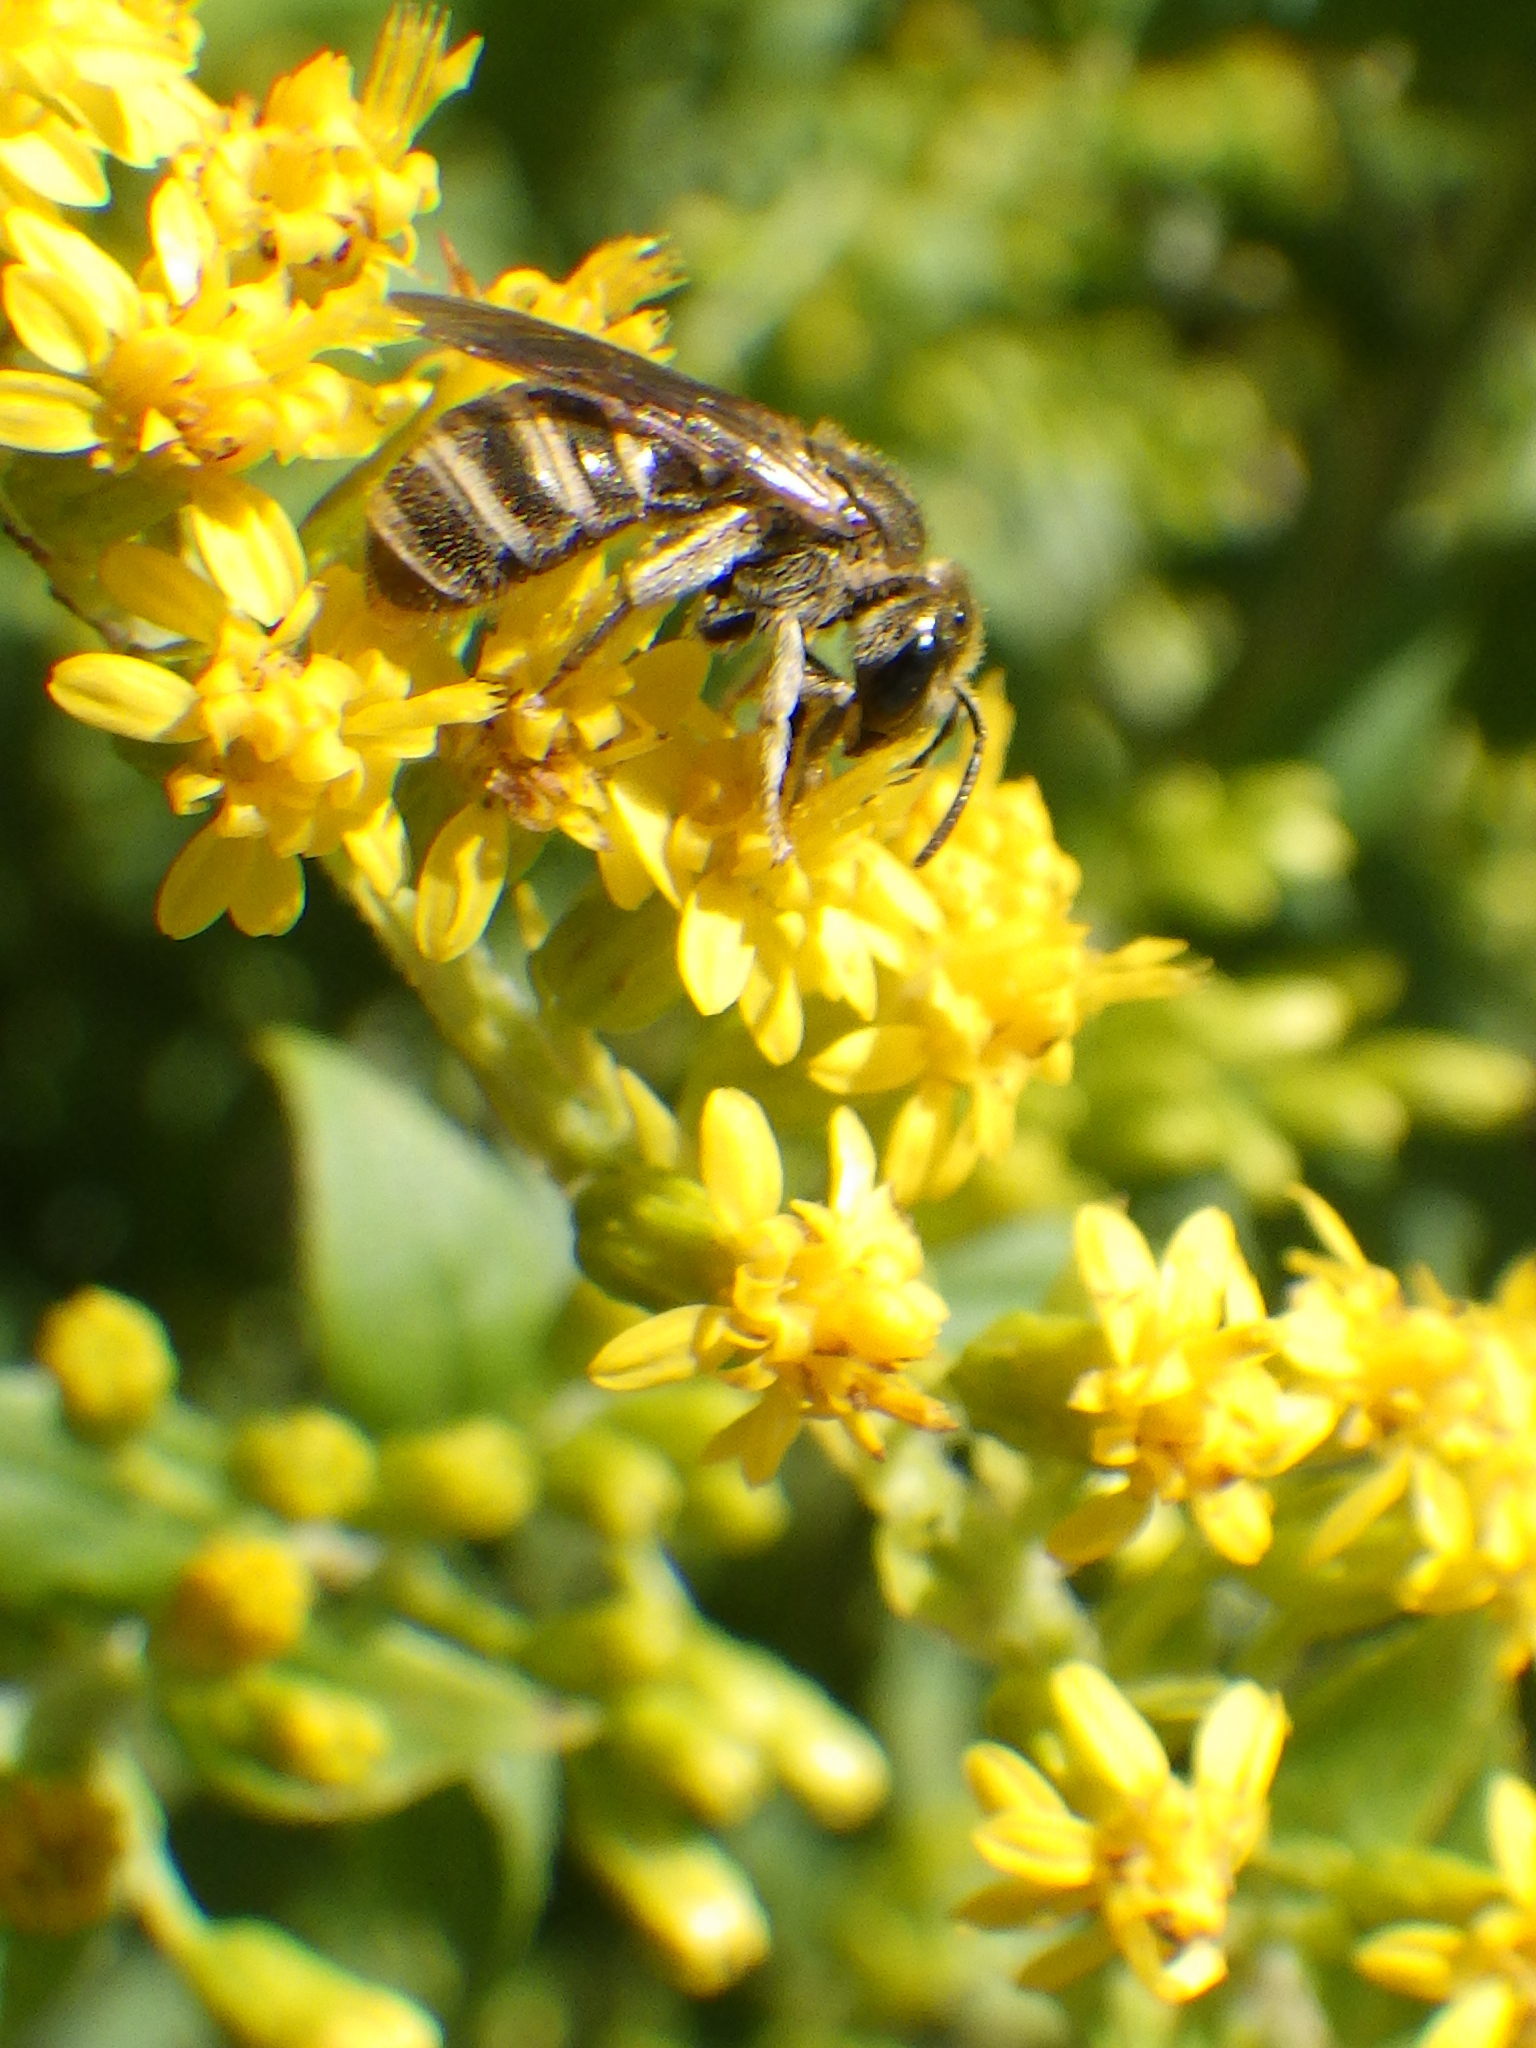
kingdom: Animalia
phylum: Arthropoda
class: Insecta
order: Hymenoptera
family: Halictidae
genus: Halictus
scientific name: Halictus confusus
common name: Southern bronze furrow bee
